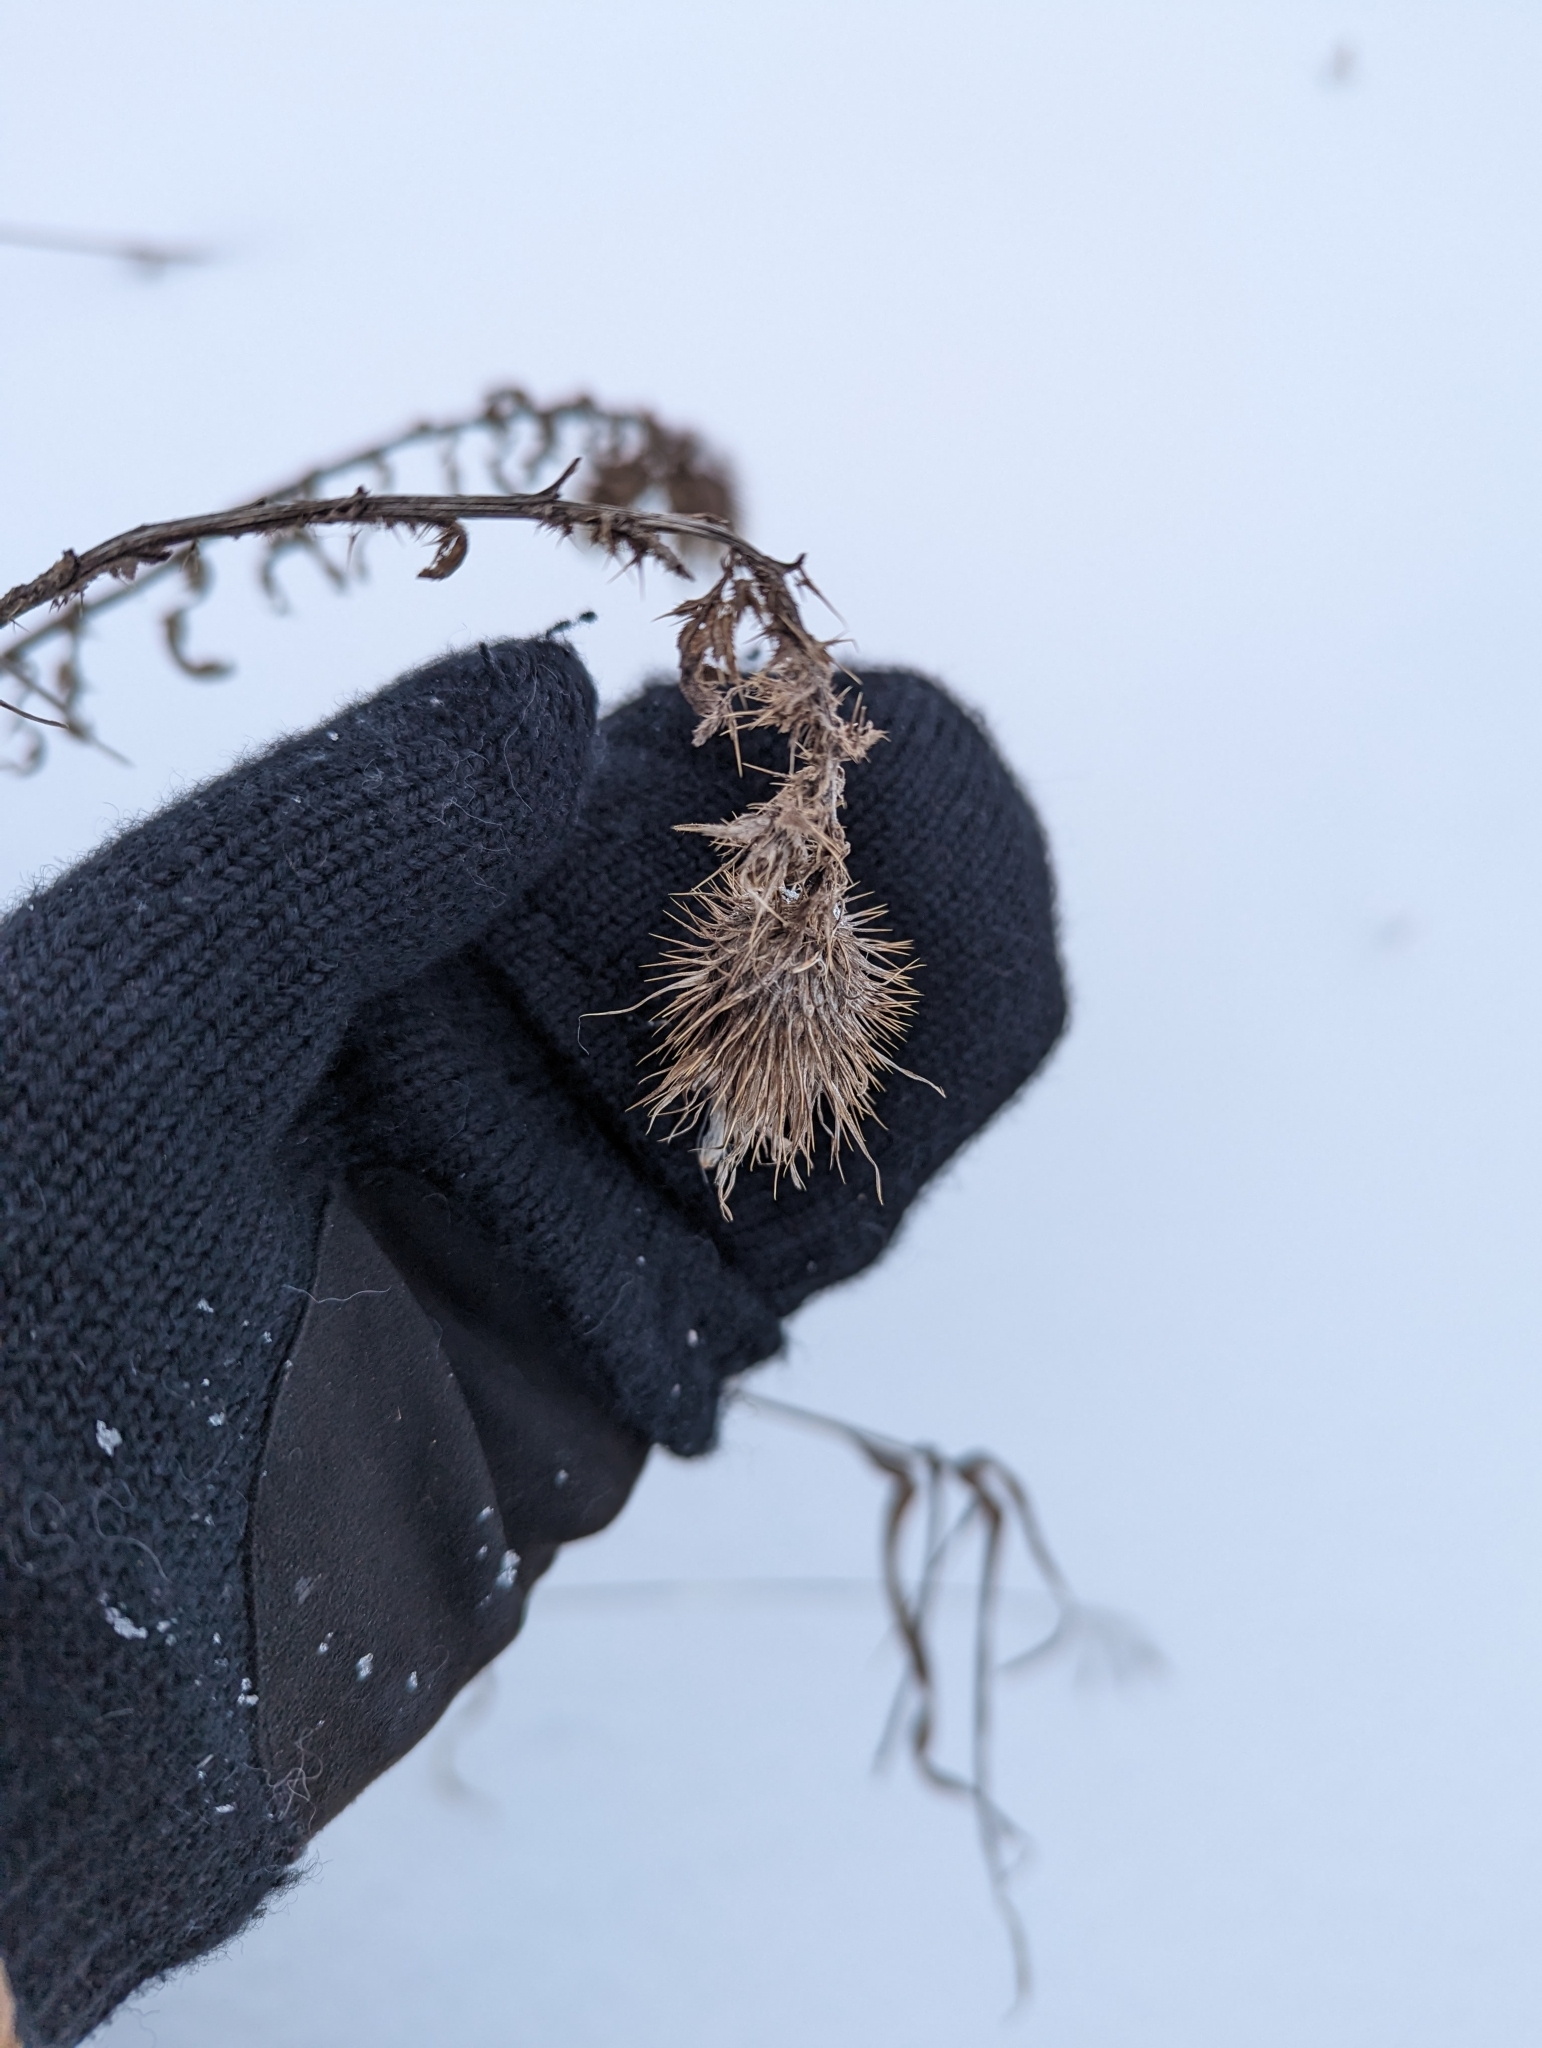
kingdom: Plantae
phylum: Tracheophyta
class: Magnoliopsida
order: Asterales
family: Asteraceae
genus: Cirsium
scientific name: Cirsium vulgare
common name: Bull thistle
